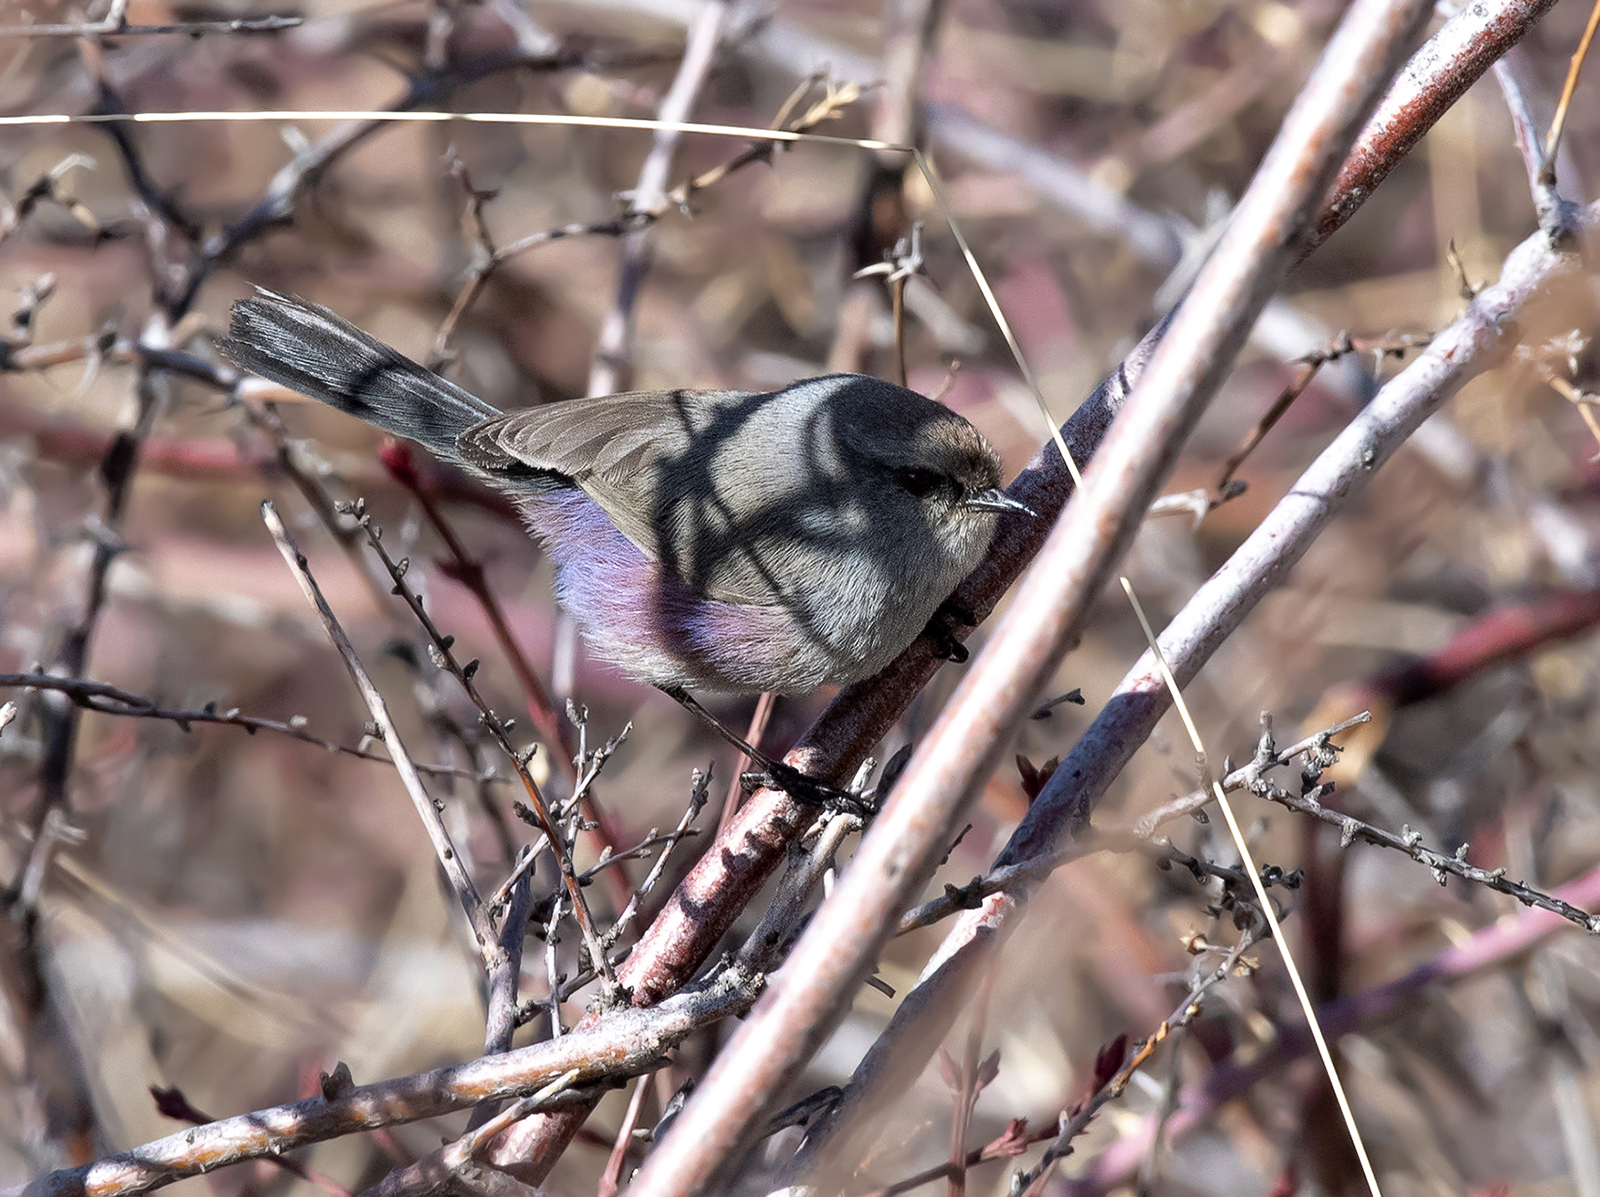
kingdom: Animalia
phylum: Chordata
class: Aves
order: Passeriformes
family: Aegithalidae
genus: Leptopoecile
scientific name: Leptopoecile sophiae
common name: White-browed tit-warbler
